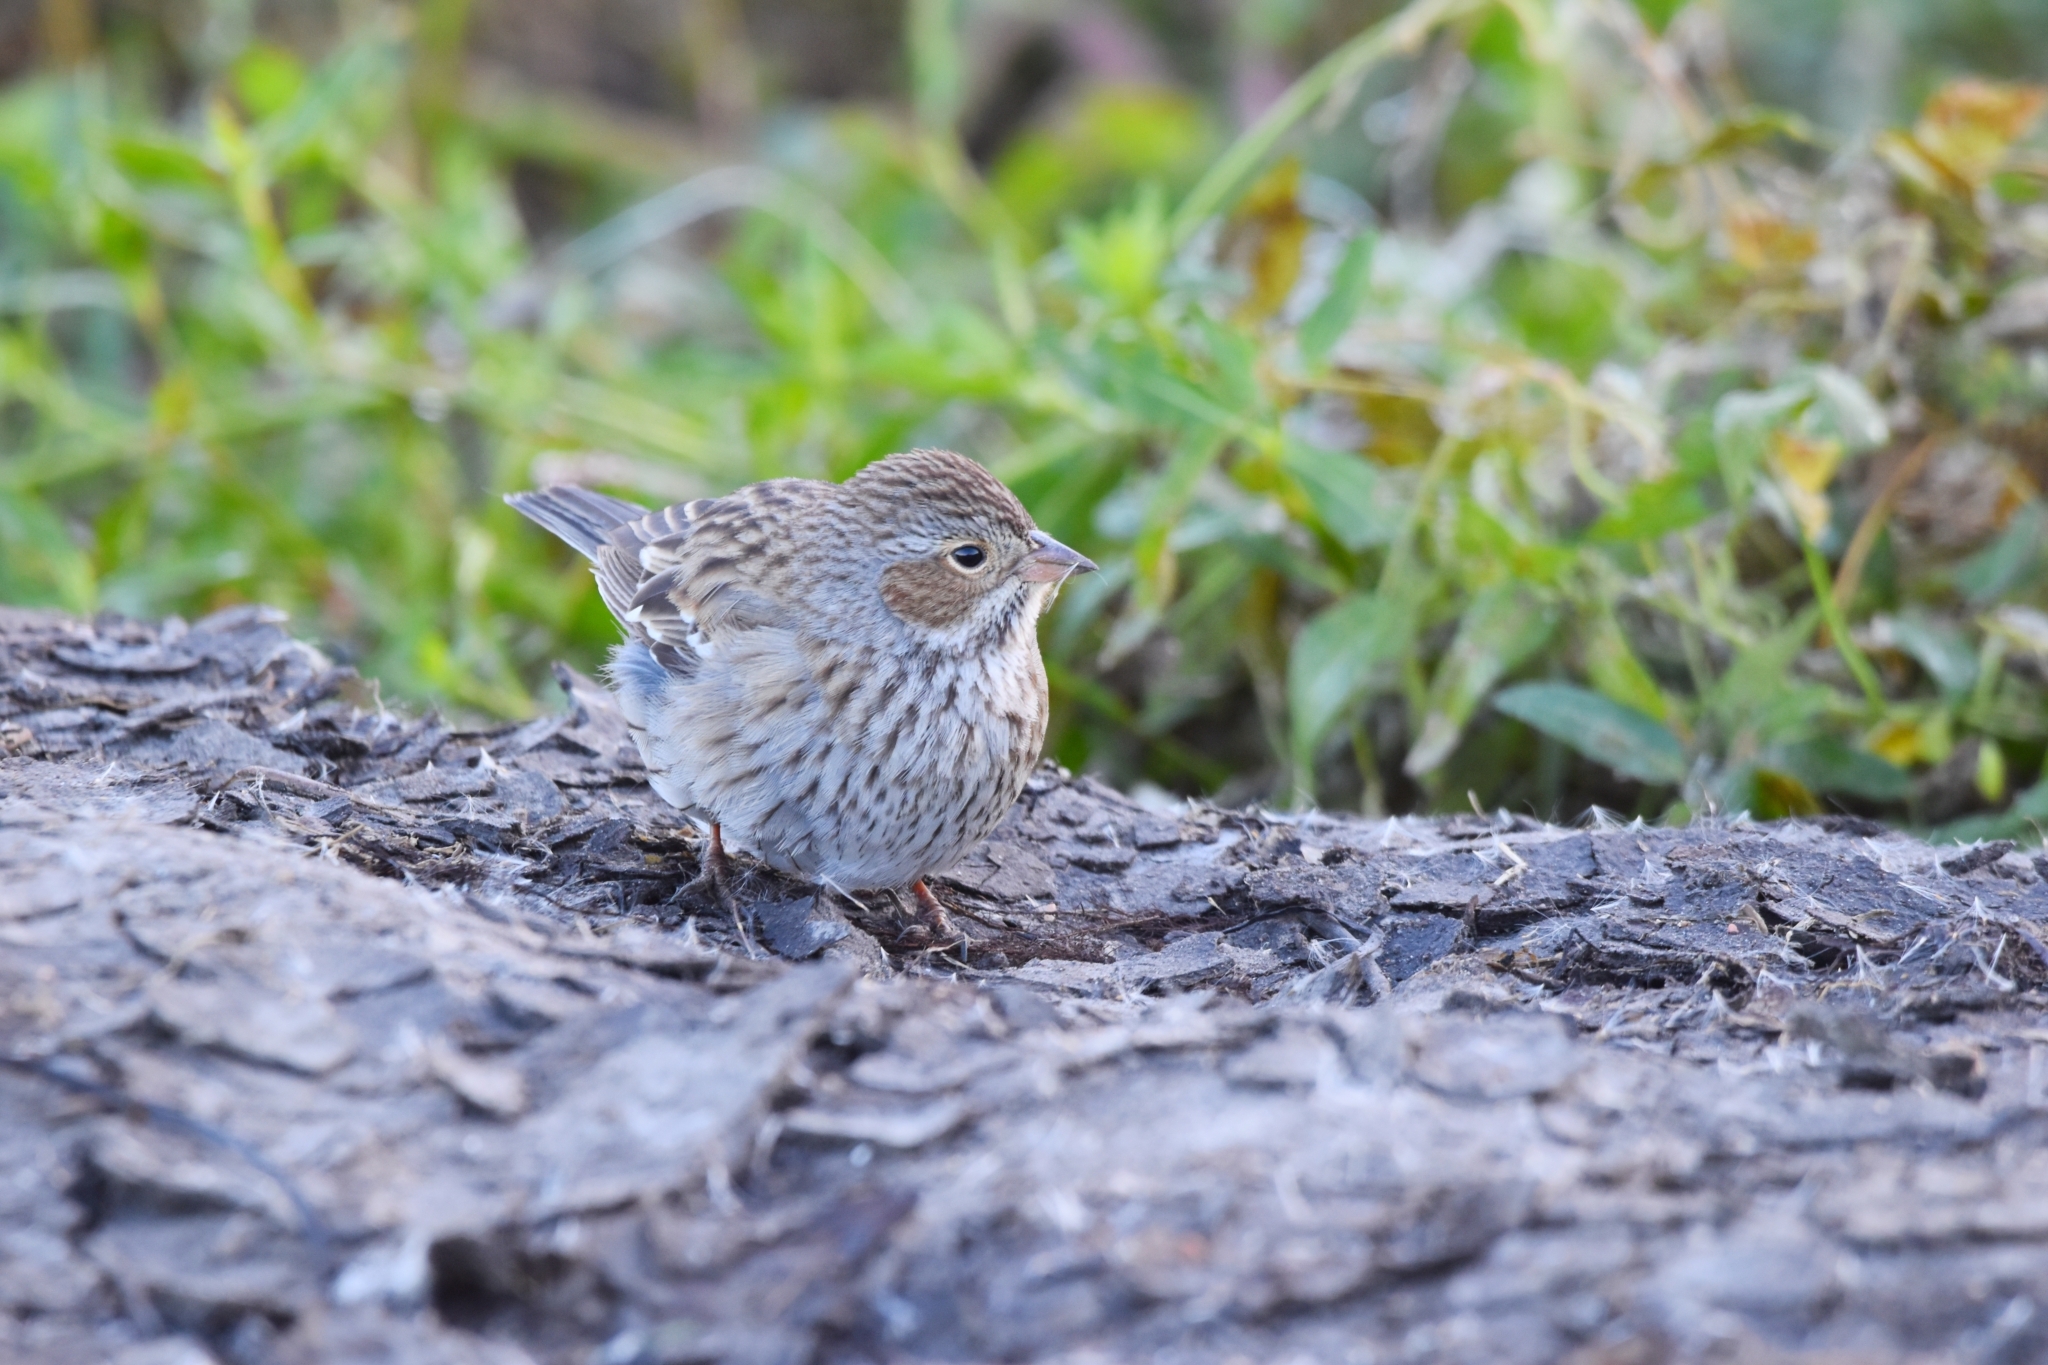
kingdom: Animalia
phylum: Chordata
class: Aves
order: Passeriformes
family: Thraupidae
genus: Rhopospina
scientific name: Rhopospina fruticeti
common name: Mourning sierra finch
